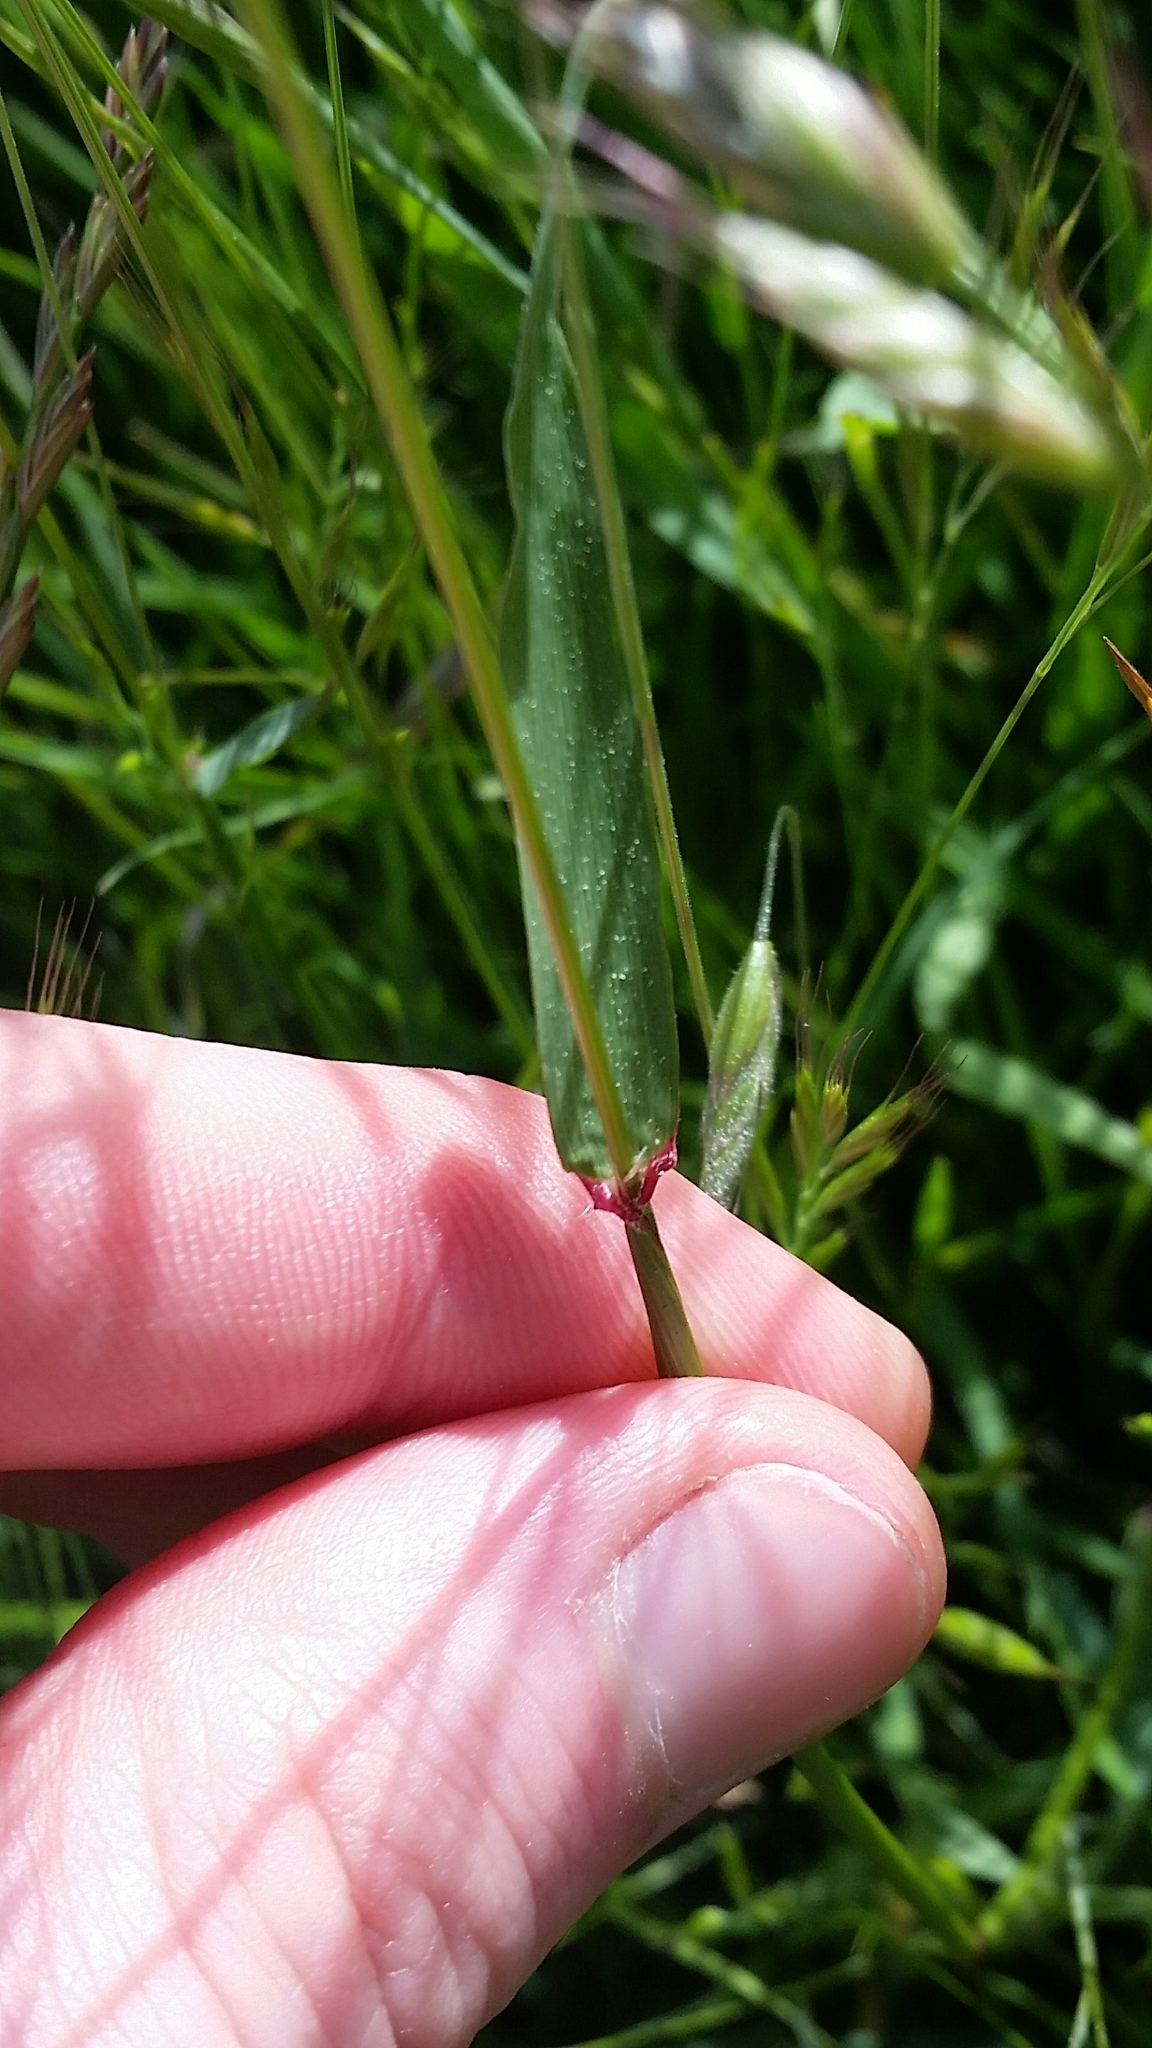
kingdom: Plantae
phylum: Tracheophyta
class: Liliopsida
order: Poales
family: Poaceae
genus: Anthoxanthum
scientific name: Anthoxanthum odoratum
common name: Sweet vernalgrass
